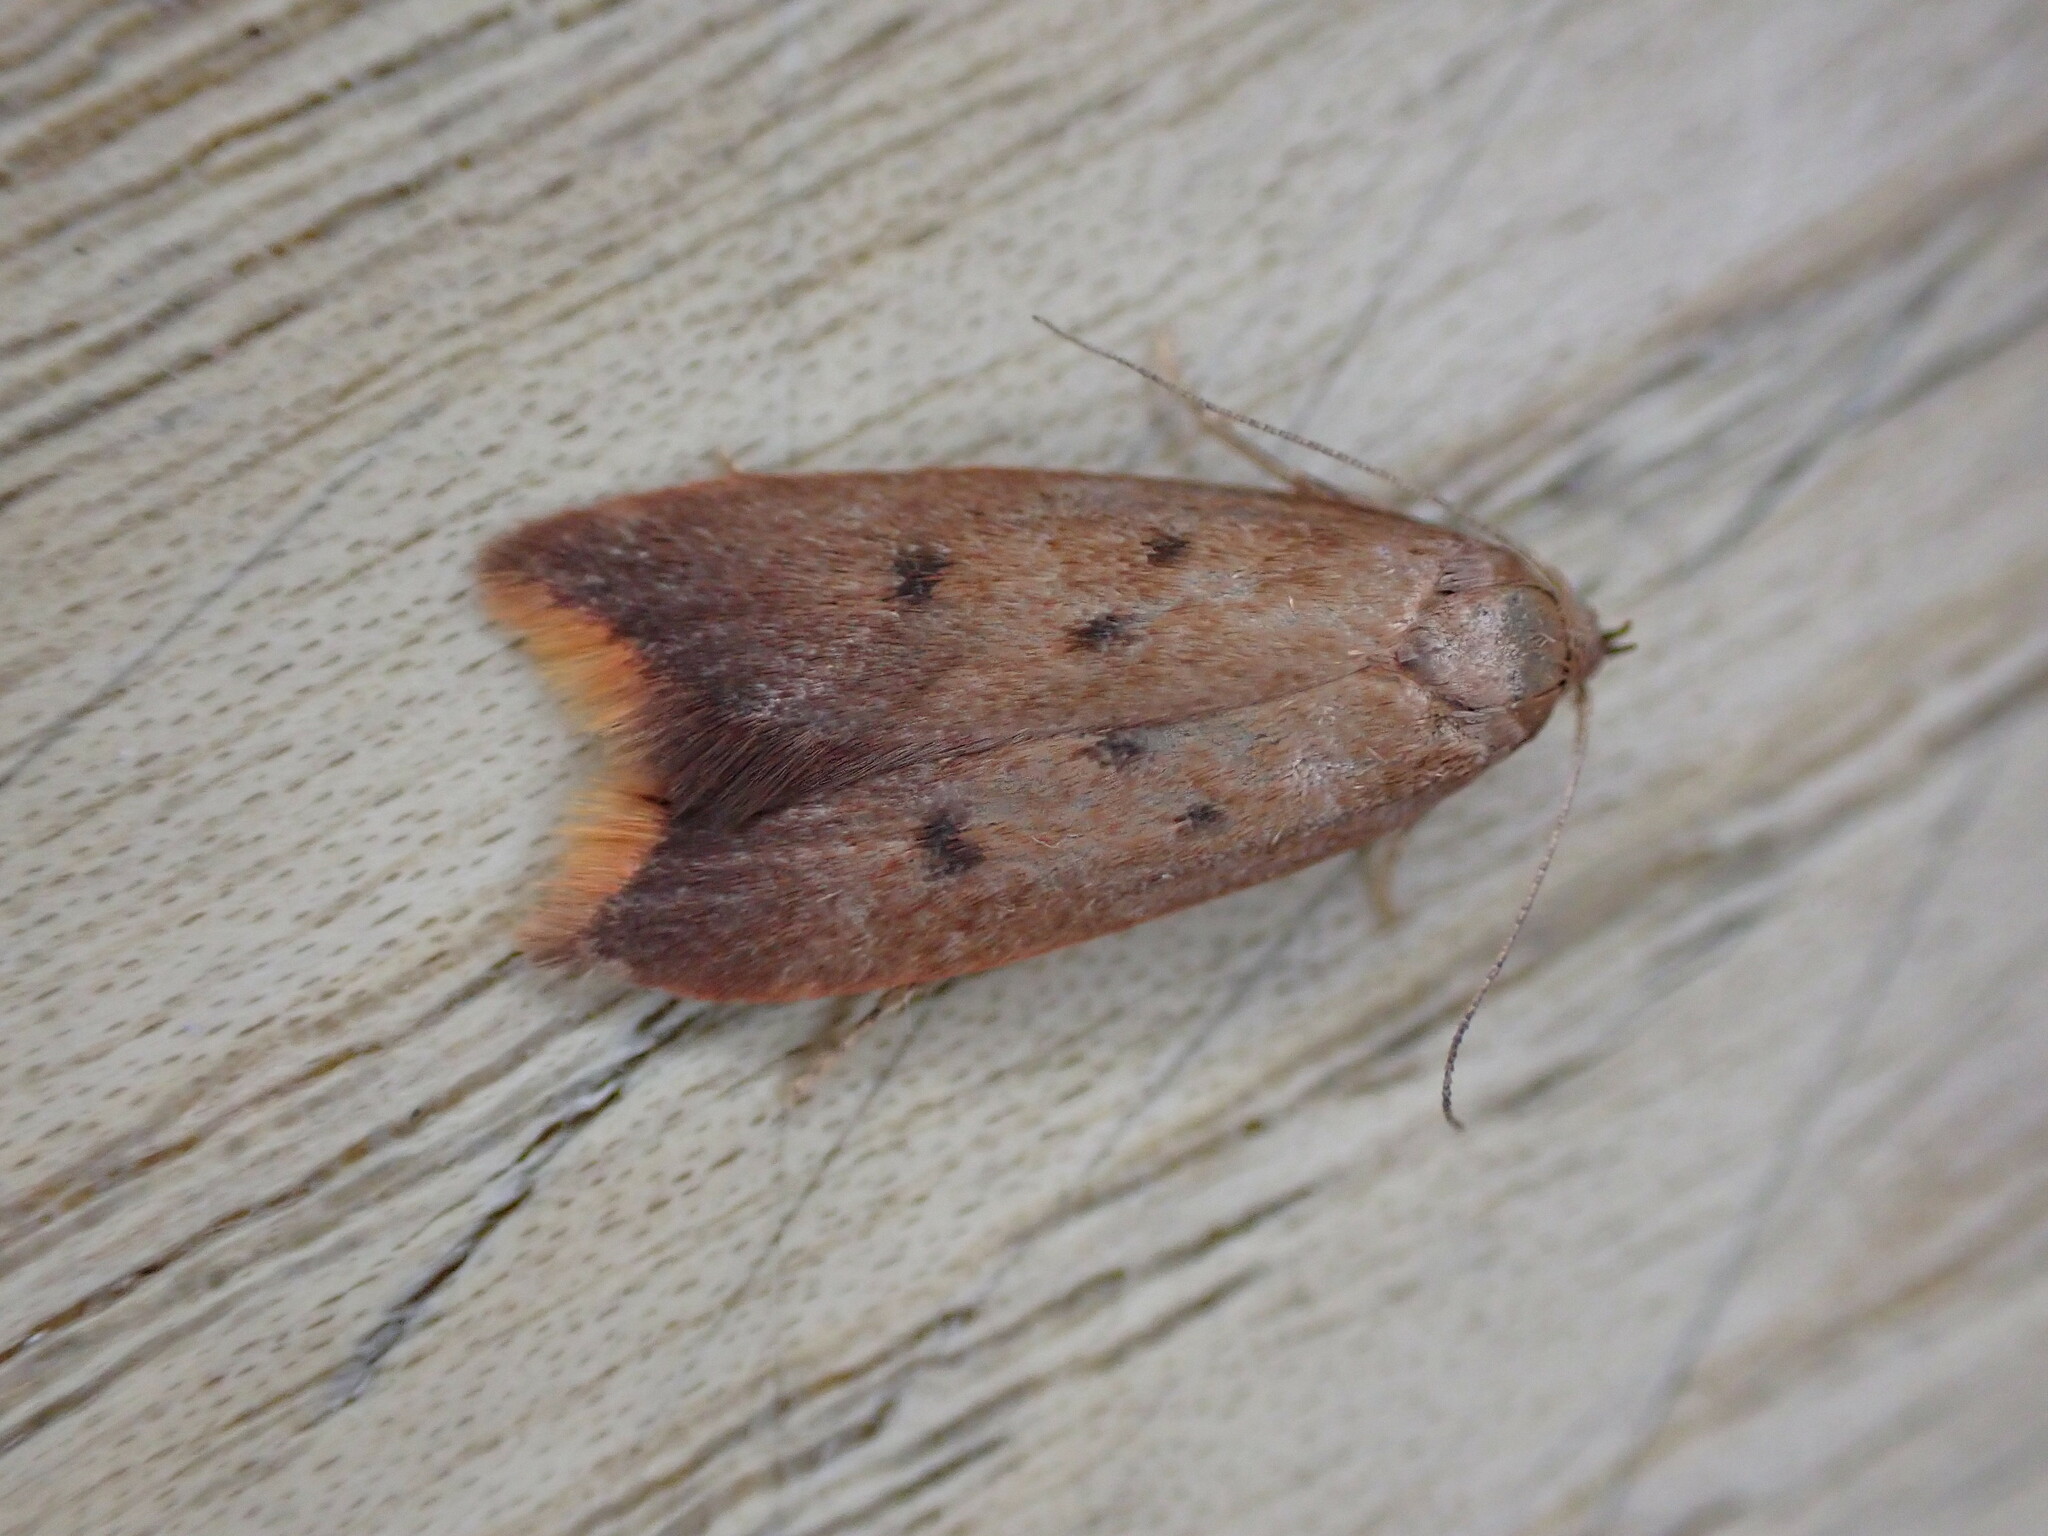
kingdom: Animalia
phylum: Arthropoda
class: Insecta
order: Lepidoptera
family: Oecophoridae
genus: Tachystola
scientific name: Tachystola acroxantha
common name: Ruddy streak
